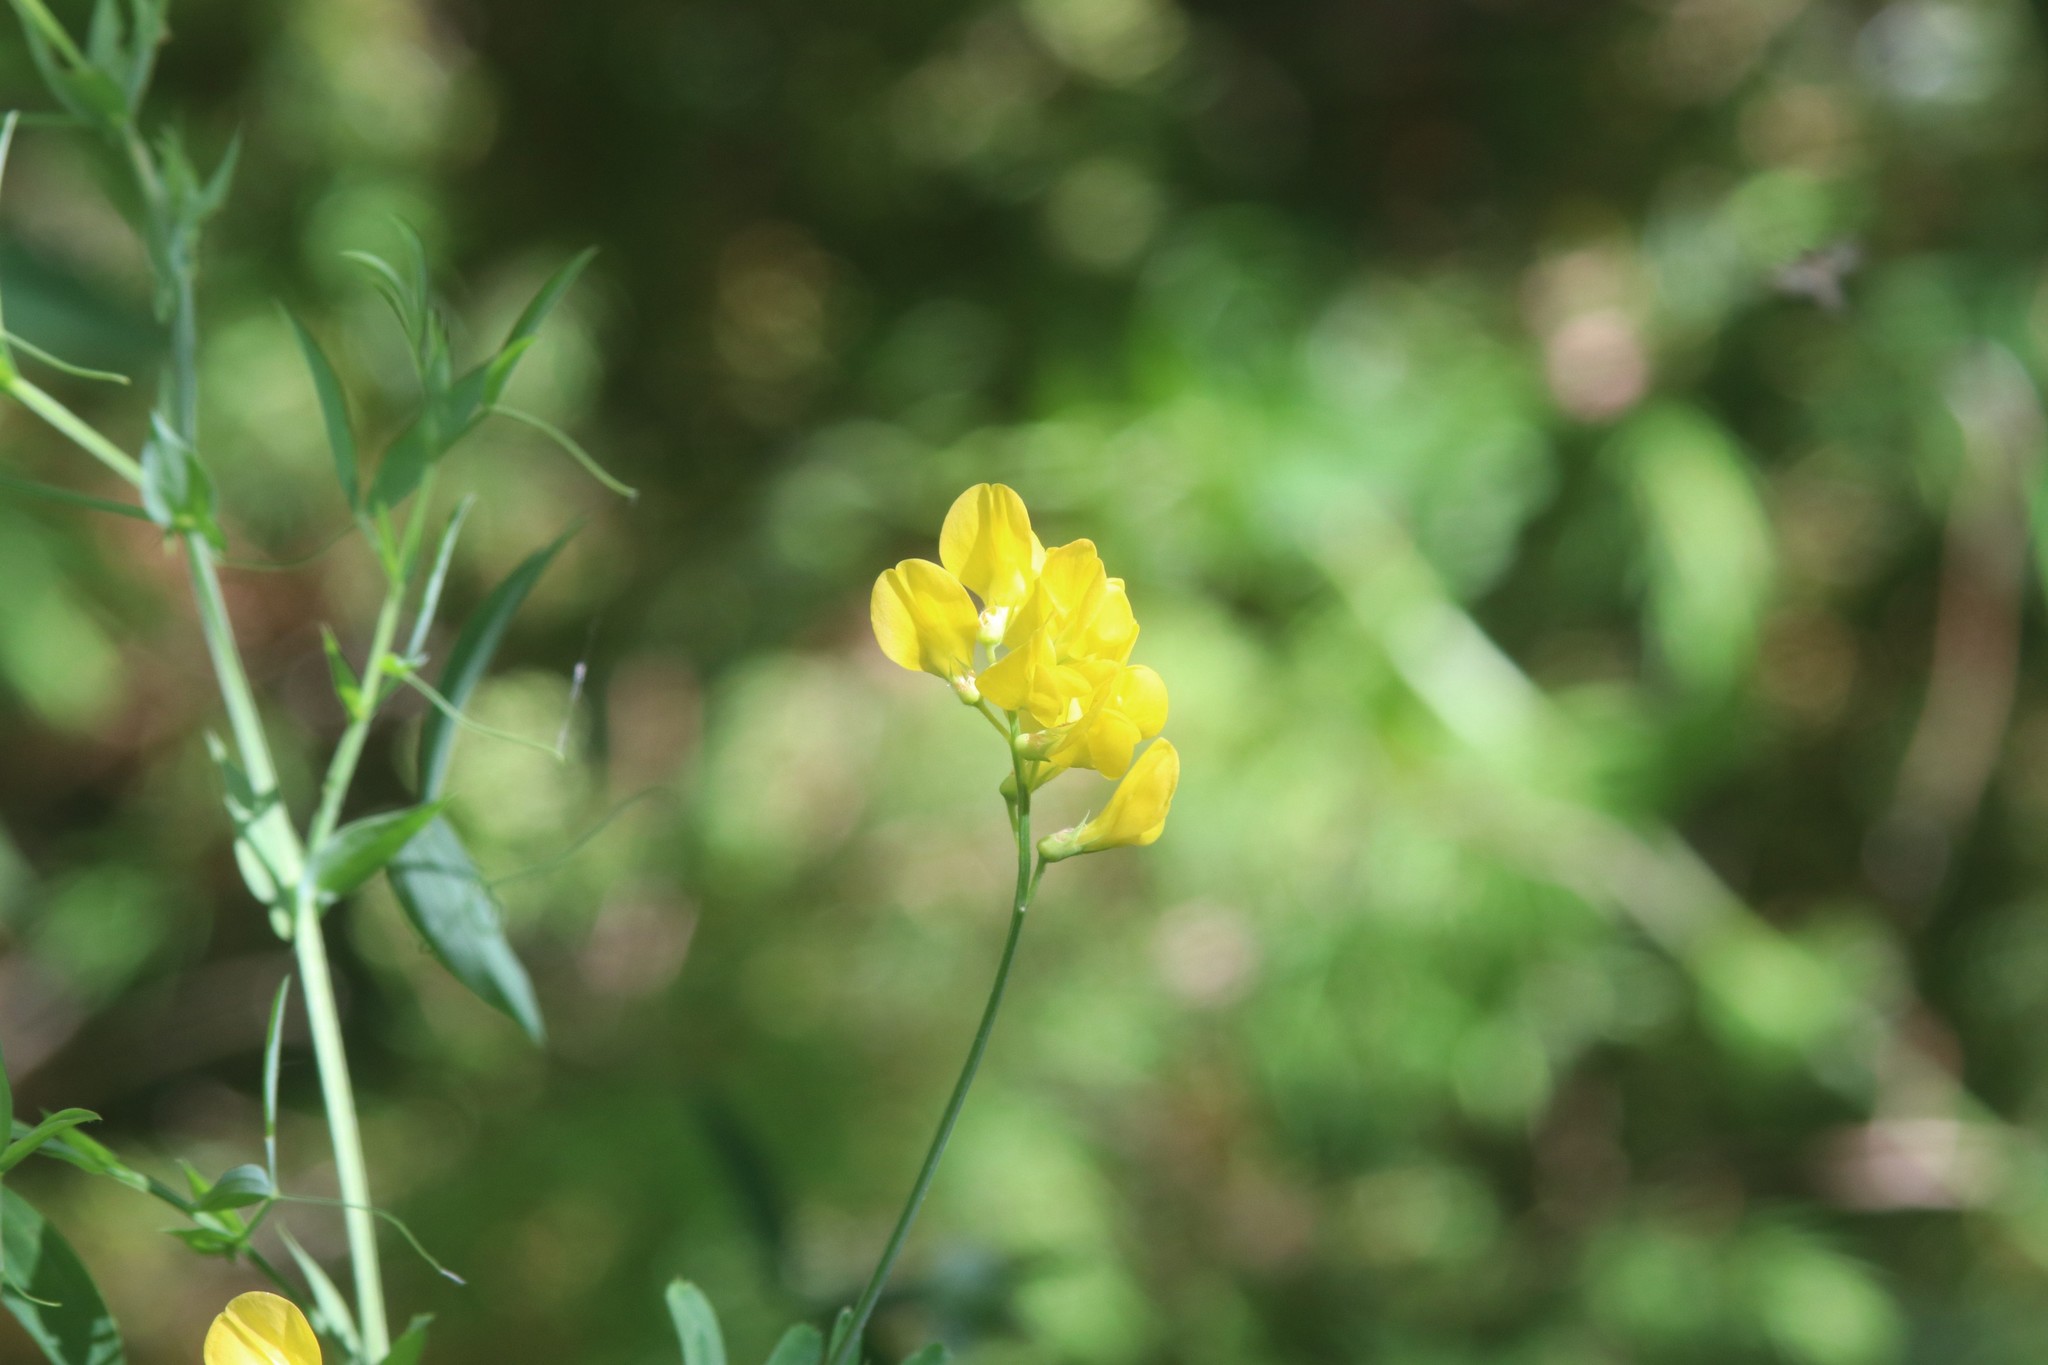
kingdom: Plantae
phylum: Tracheophyta
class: Magnoliopsida
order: Fabales
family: Fabaceae
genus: Lathyrus
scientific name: Lathyrus pratensis
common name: Meadow vetchling
